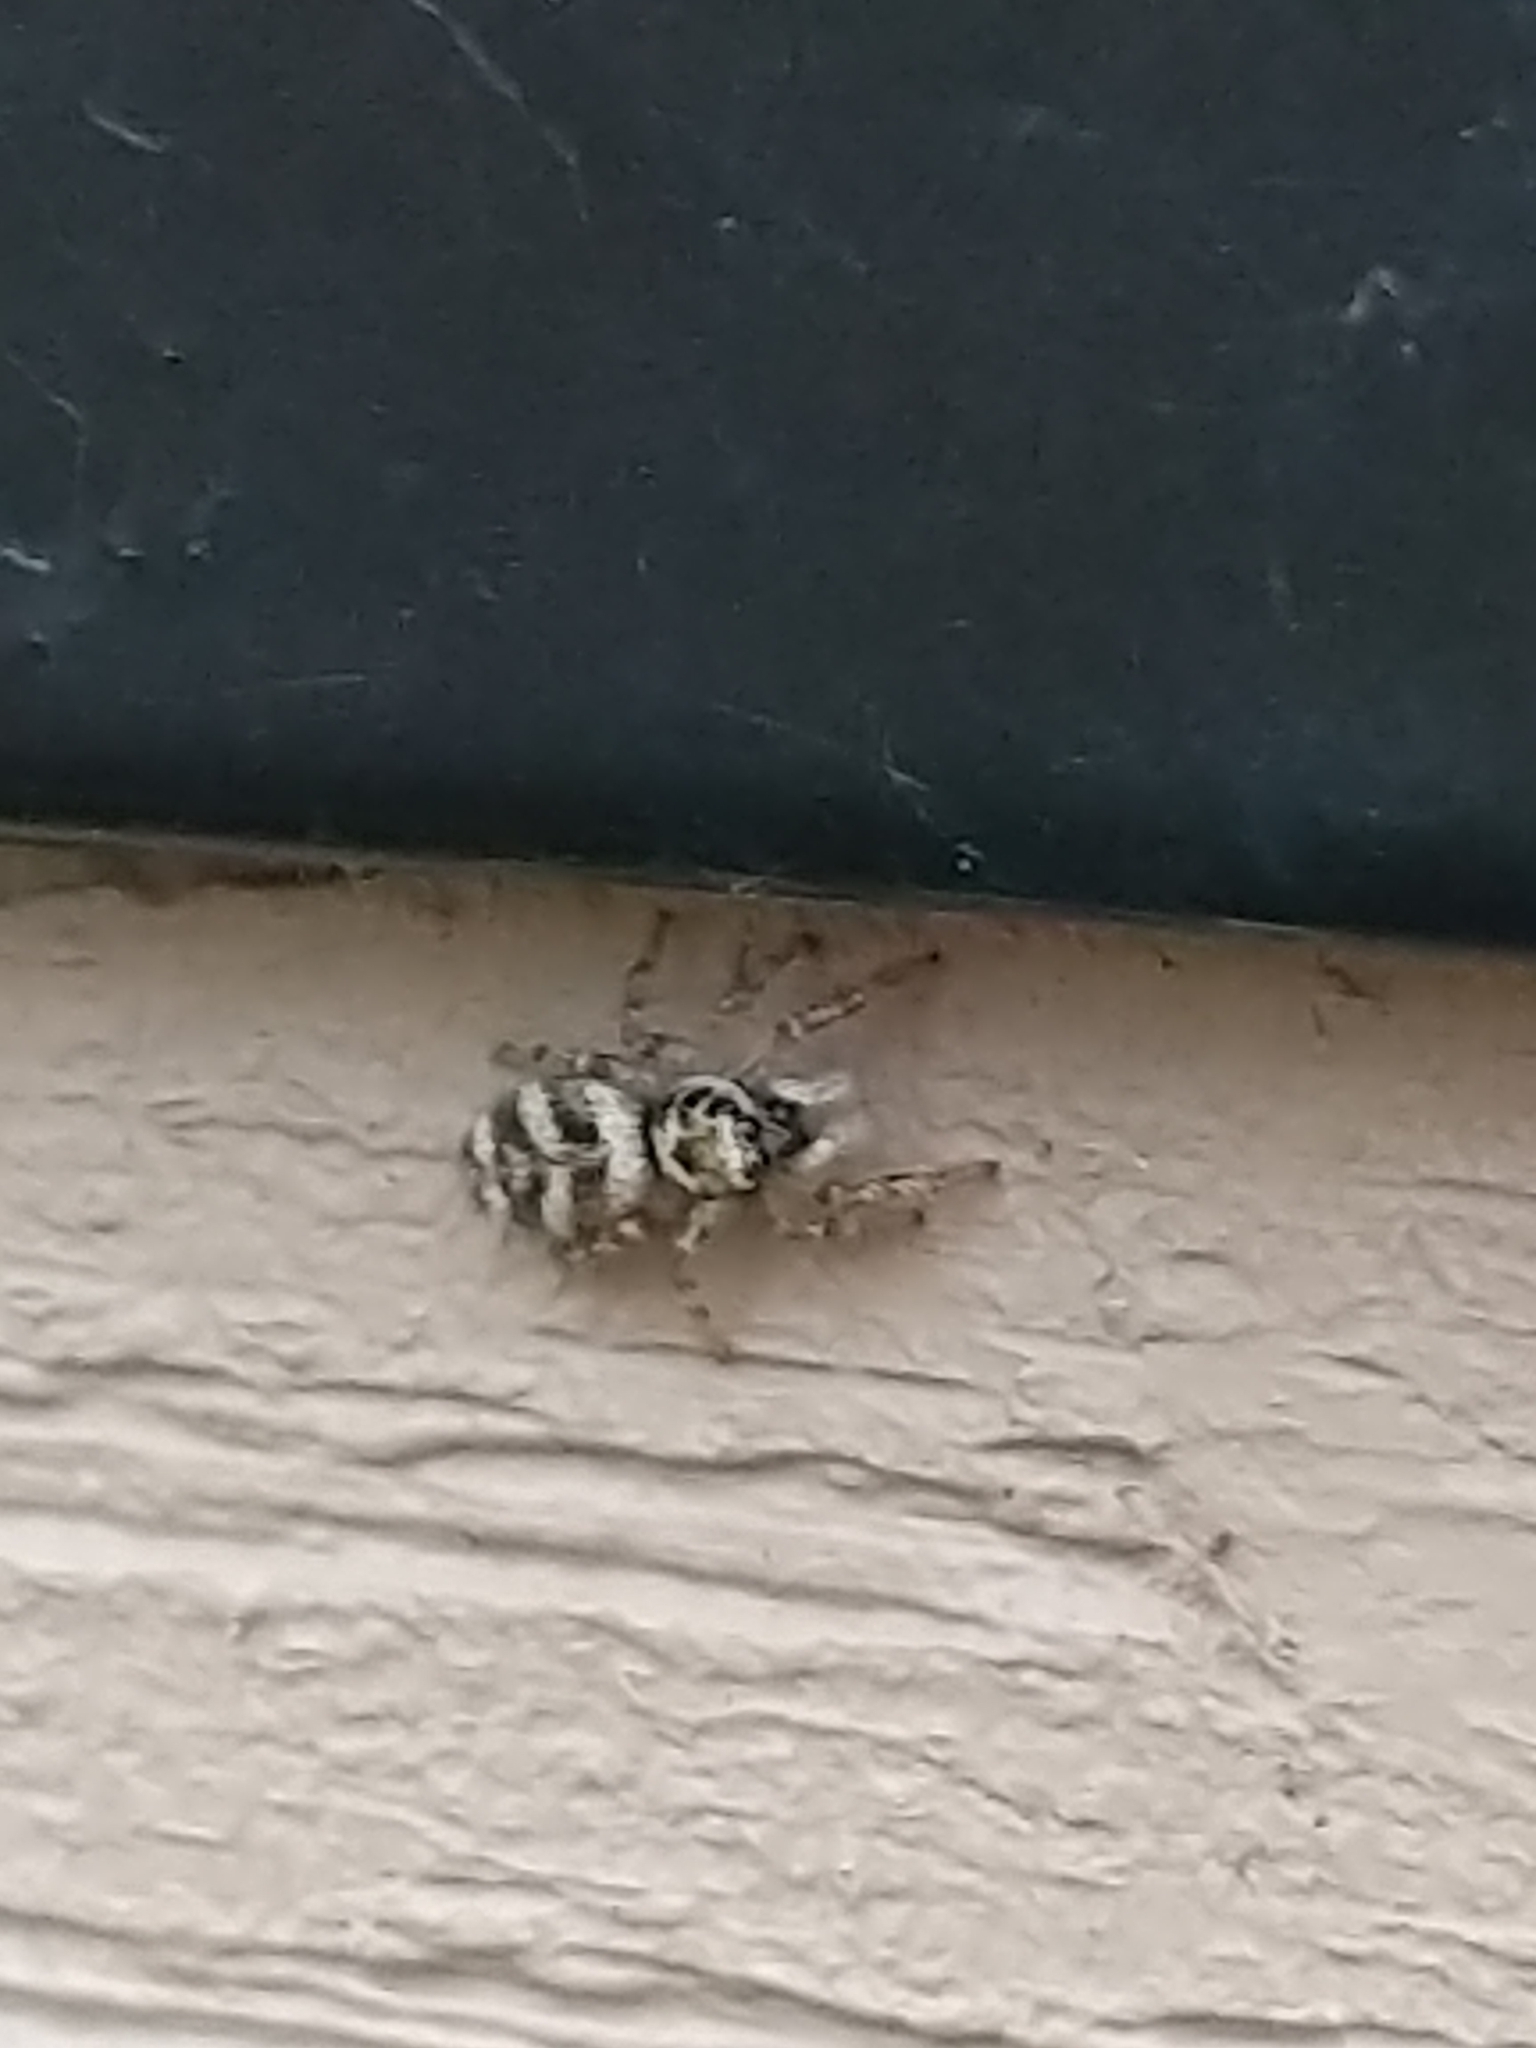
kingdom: Animalia
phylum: Arthropoda
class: Arachnida
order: Araneae
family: Salticidae
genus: Salticus
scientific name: Salticus scenicus
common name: Zebra jumper
